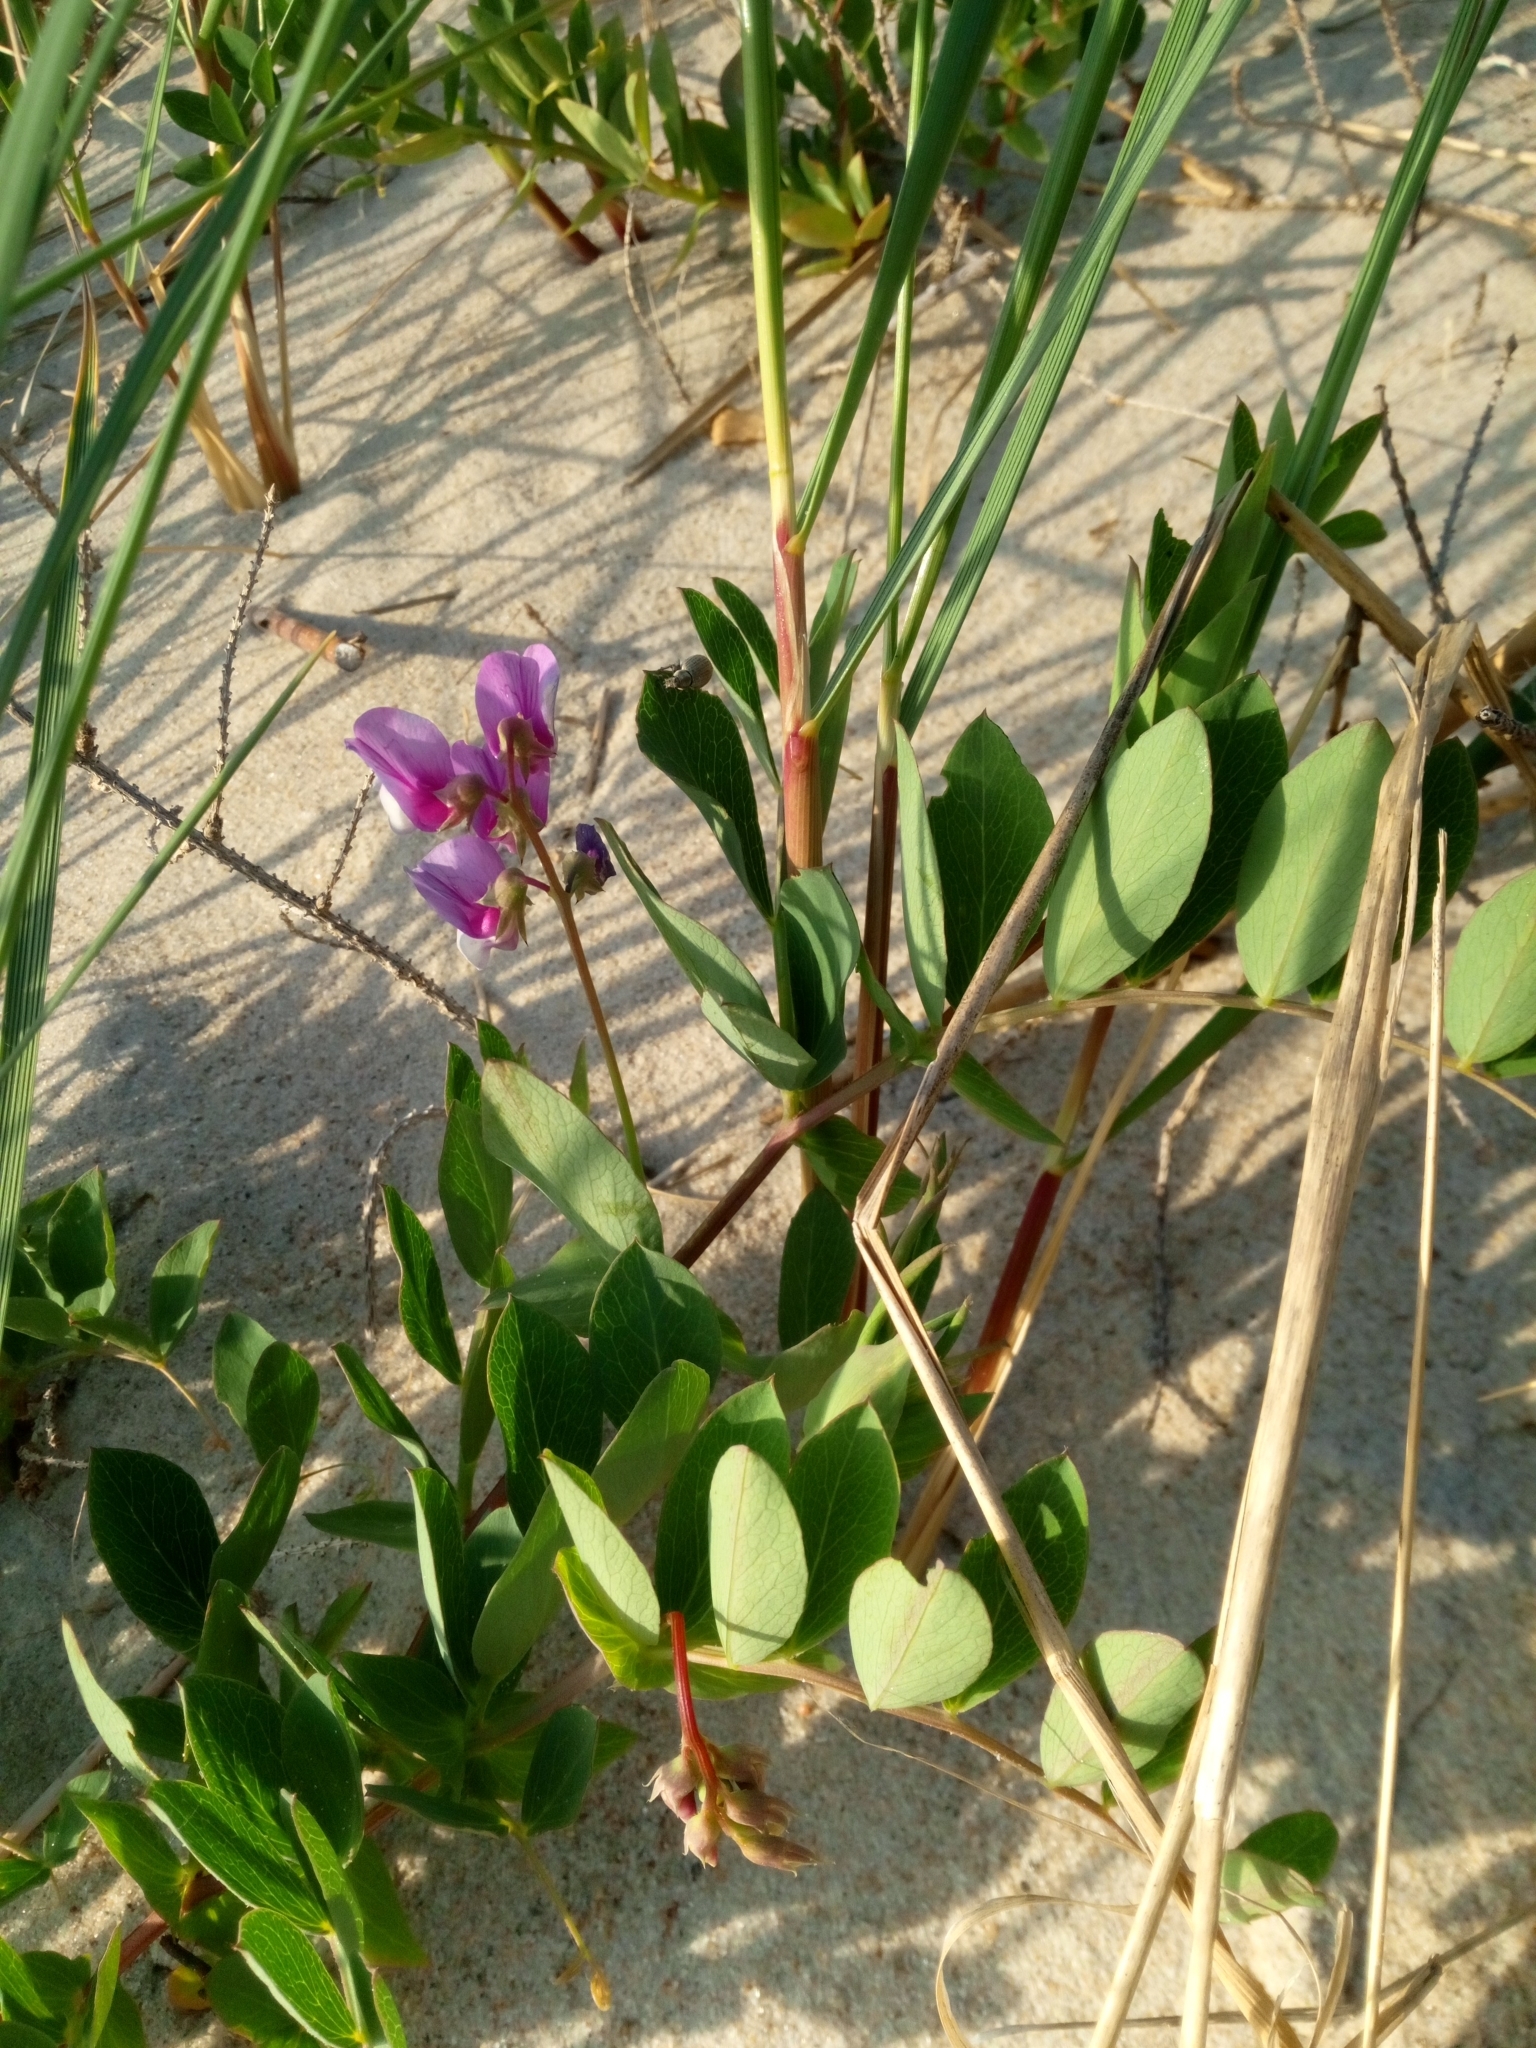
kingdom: Plantae
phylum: Tracheophyta
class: Magnoliopsida
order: Fabales
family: Fabaceae
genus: Lathyrus
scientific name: Lathyrus japonicus
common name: Sea pea
